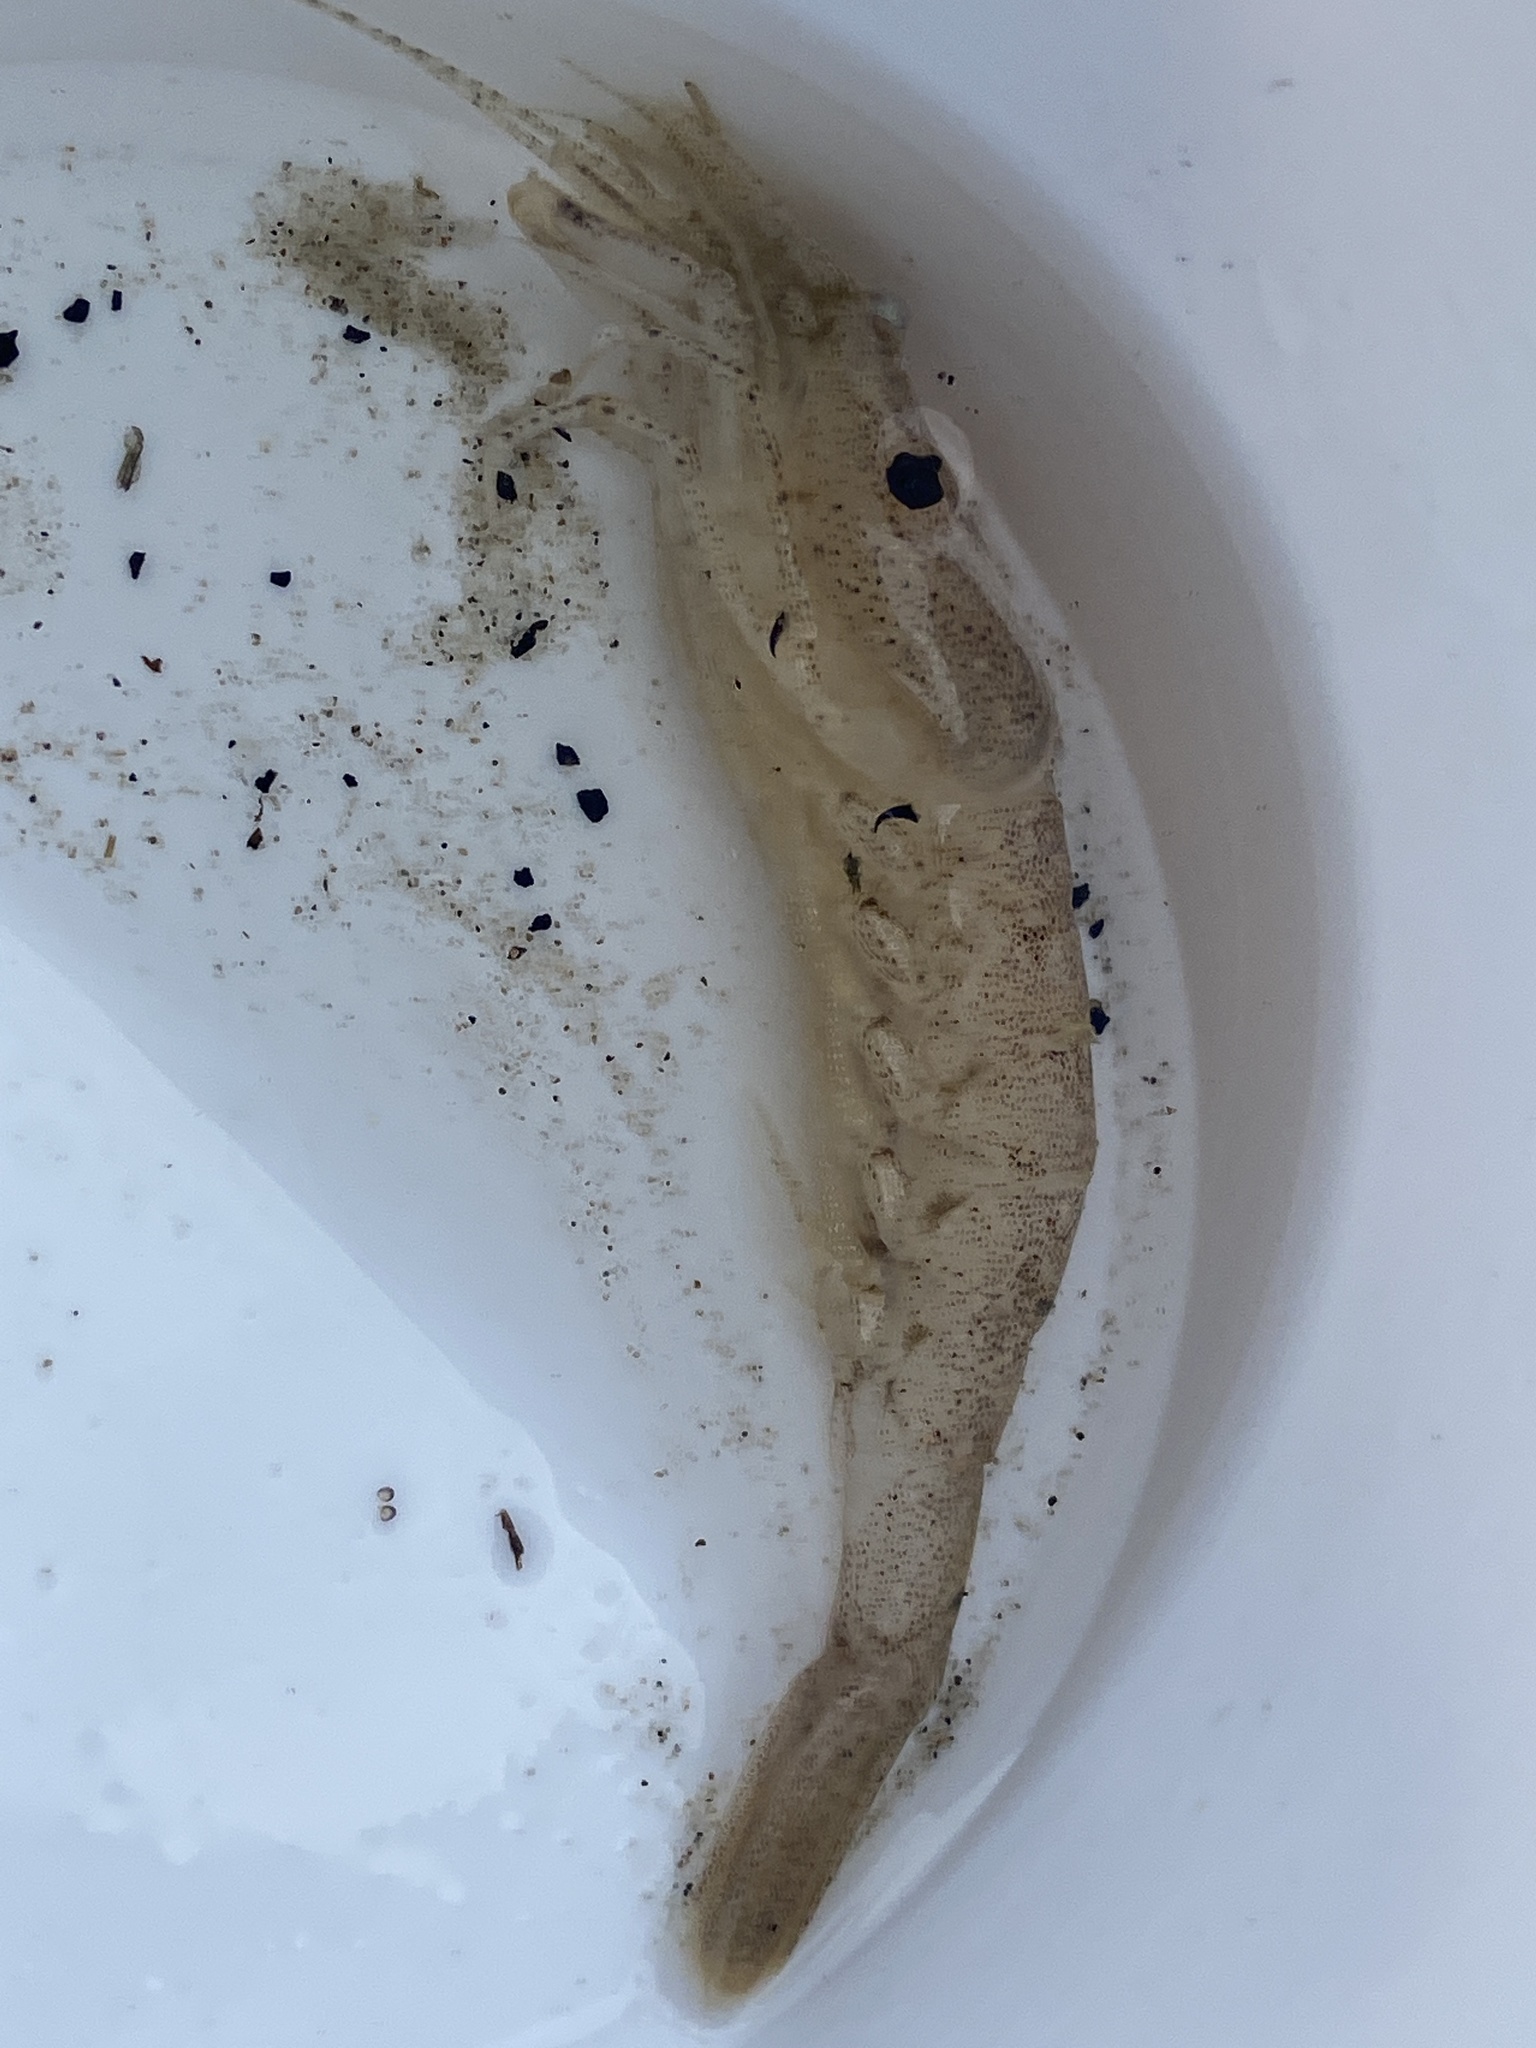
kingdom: Animalia
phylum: Arthropoda
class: Malacostraca
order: Decapoda
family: Crangonidae
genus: Crangon
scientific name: Crangon crangon
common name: Brown shrimp
